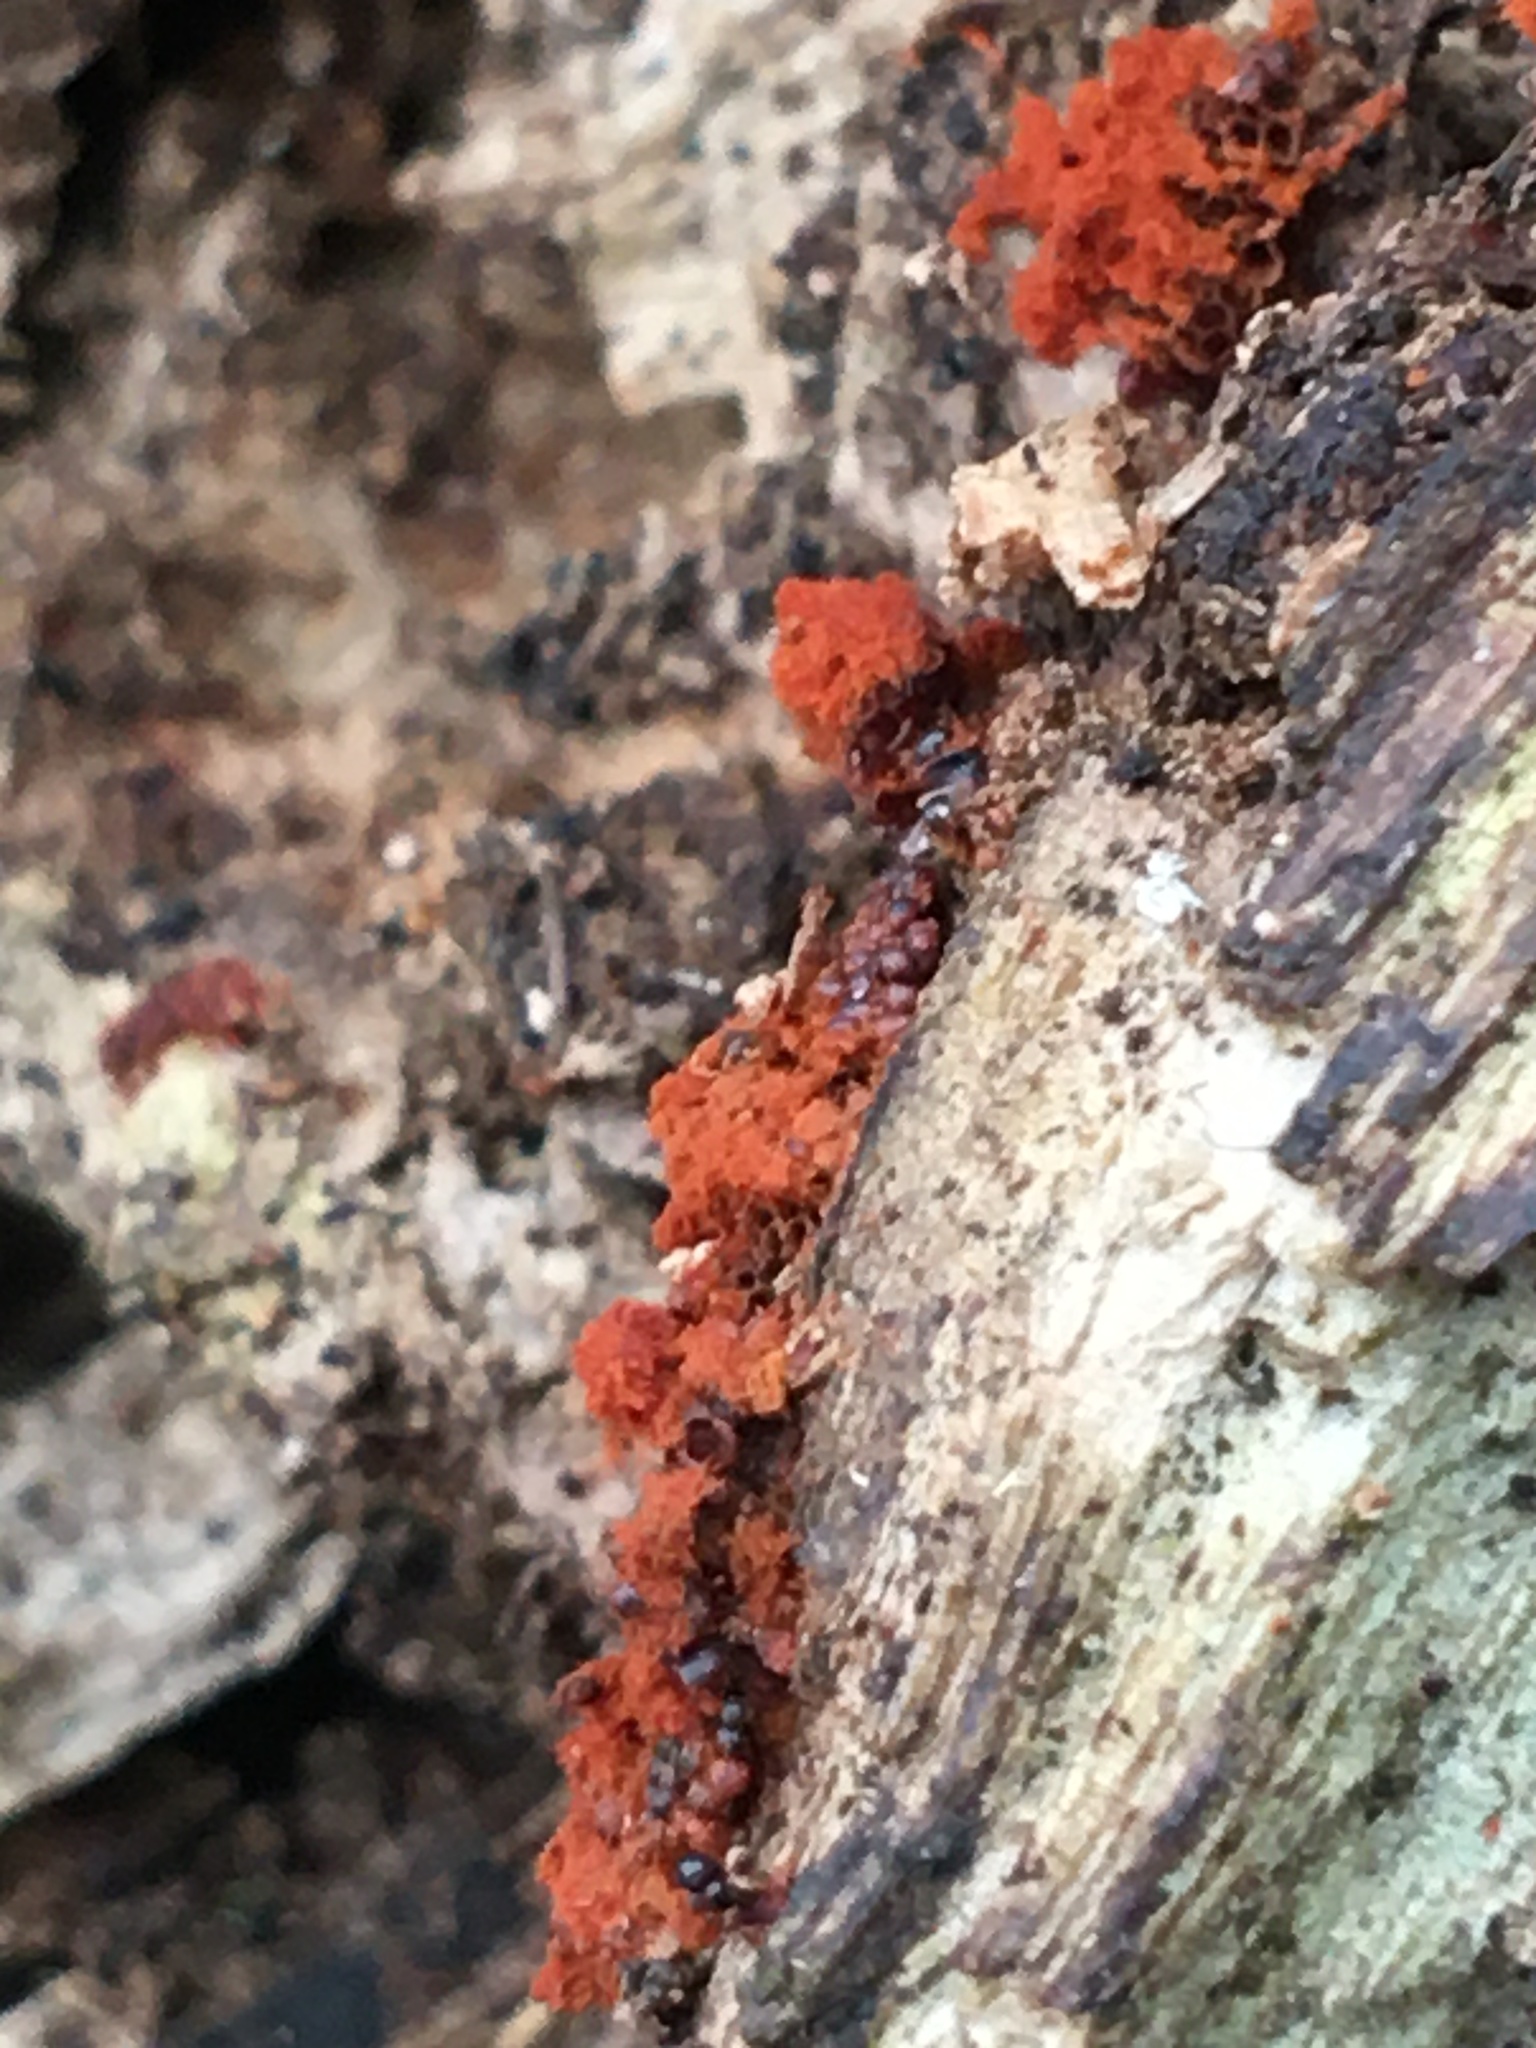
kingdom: Protozoa
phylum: Mycetozoa
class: Myxomycetes
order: Trichiales
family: Trichiaceae
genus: Metatrichia
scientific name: Metatrichia vesparia
